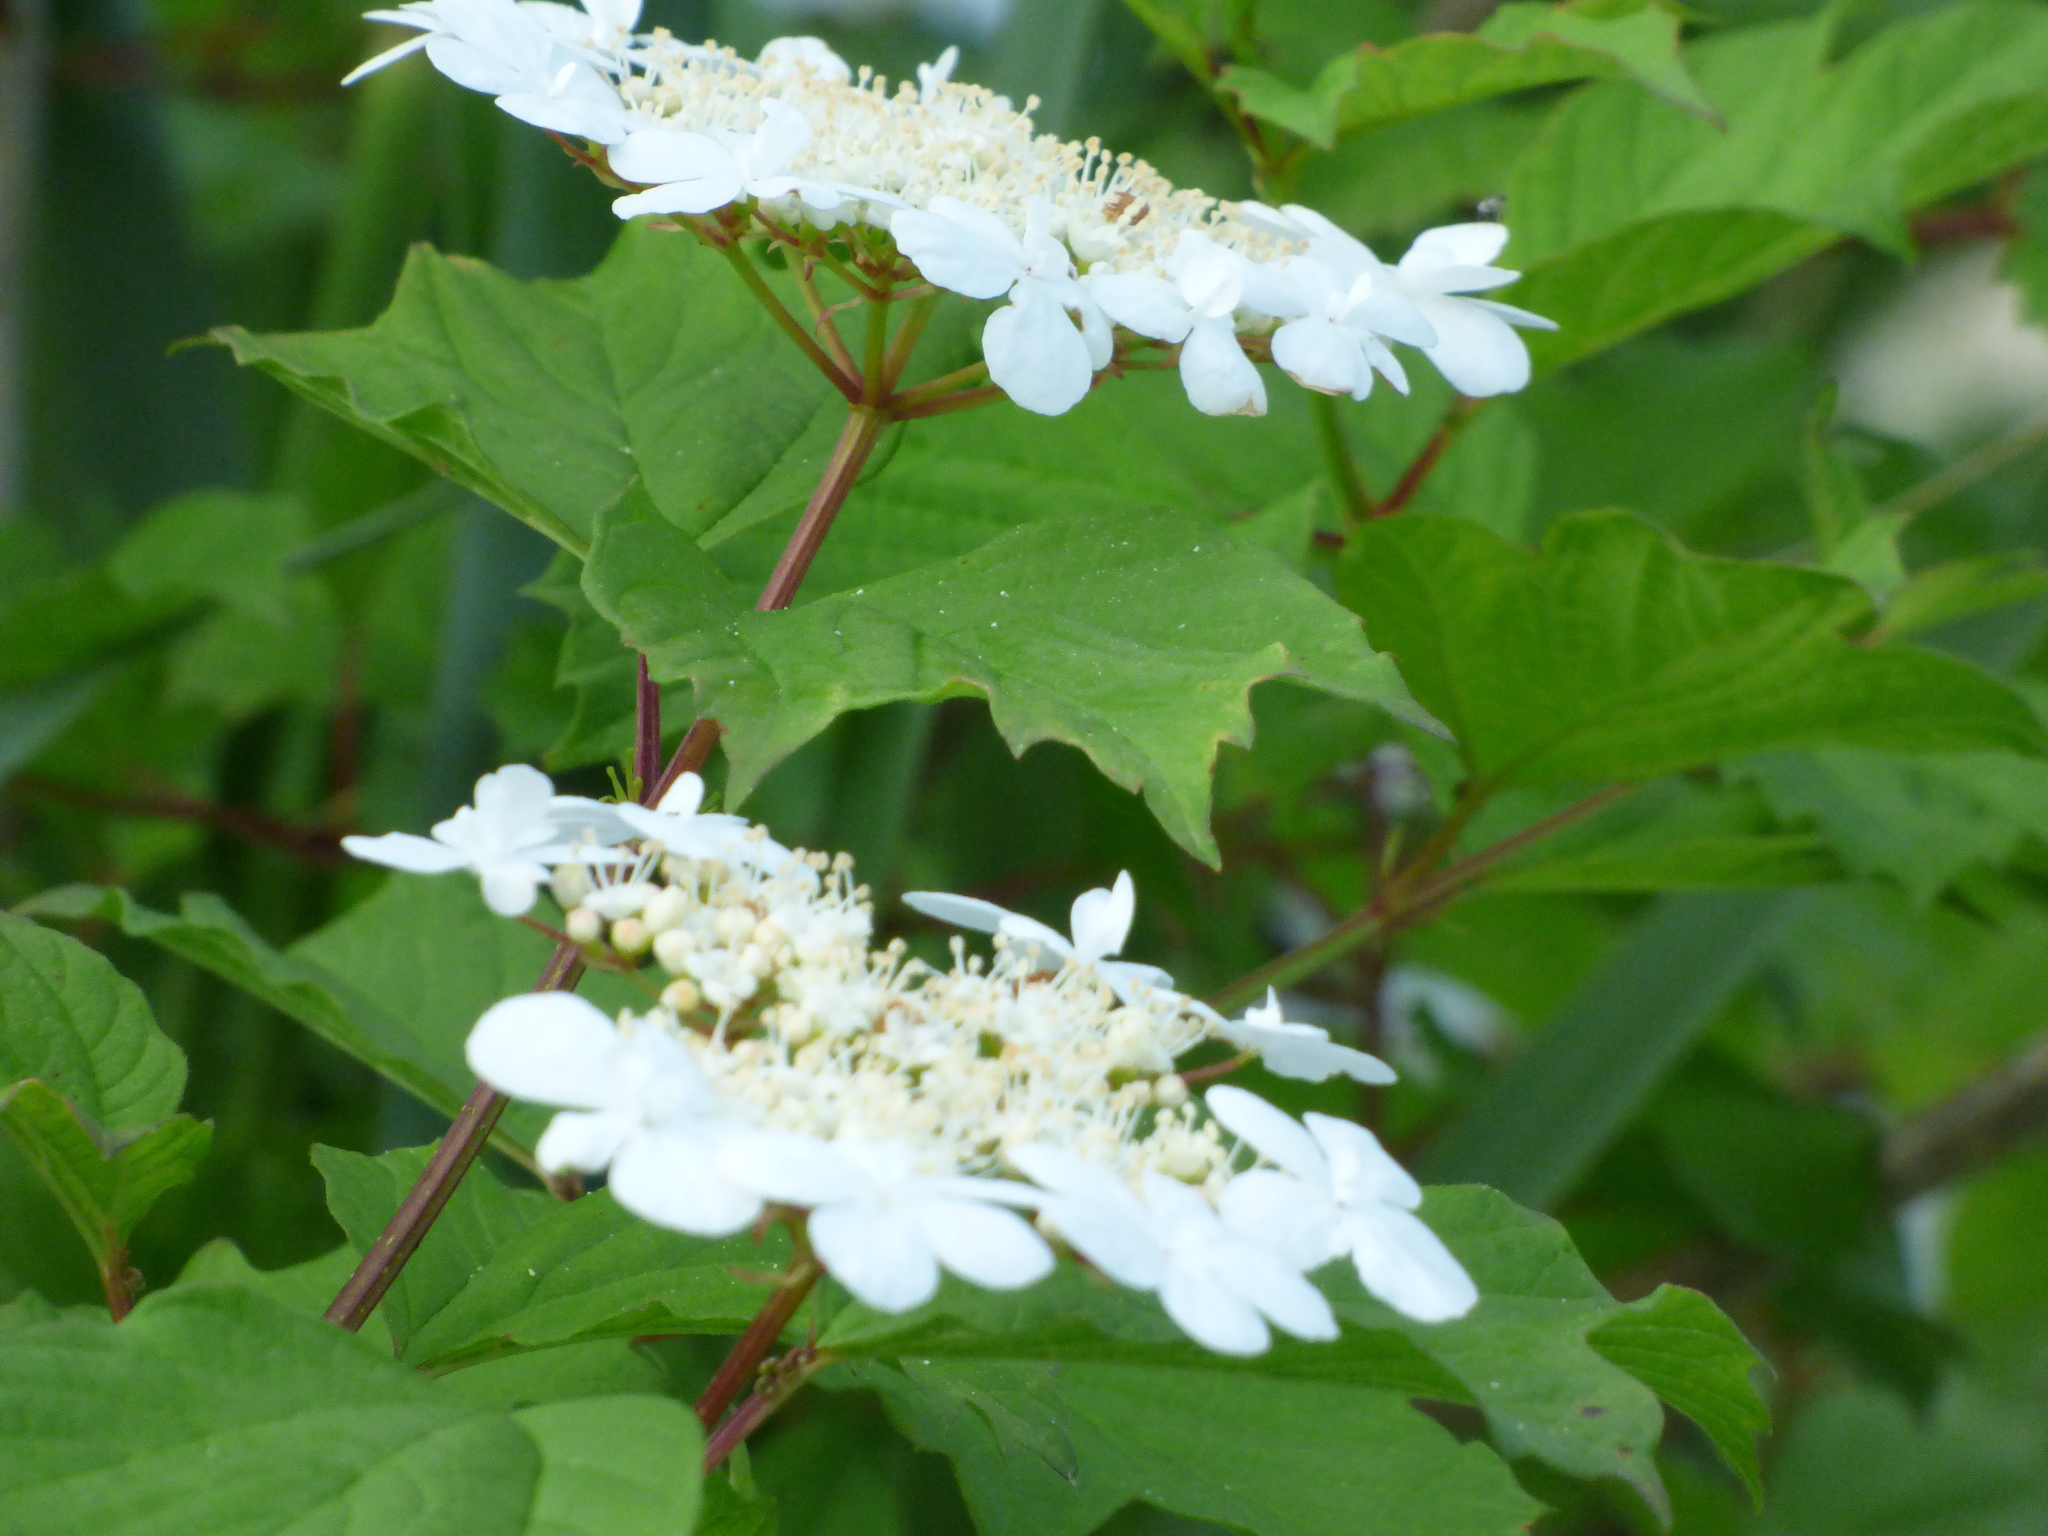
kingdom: Plantae
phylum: Tracheophyta
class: Magnoliopsida
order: Dipsacales
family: Viburnaceae
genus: Viburnum
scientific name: Viburnum opulus
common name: Guelder-rose
